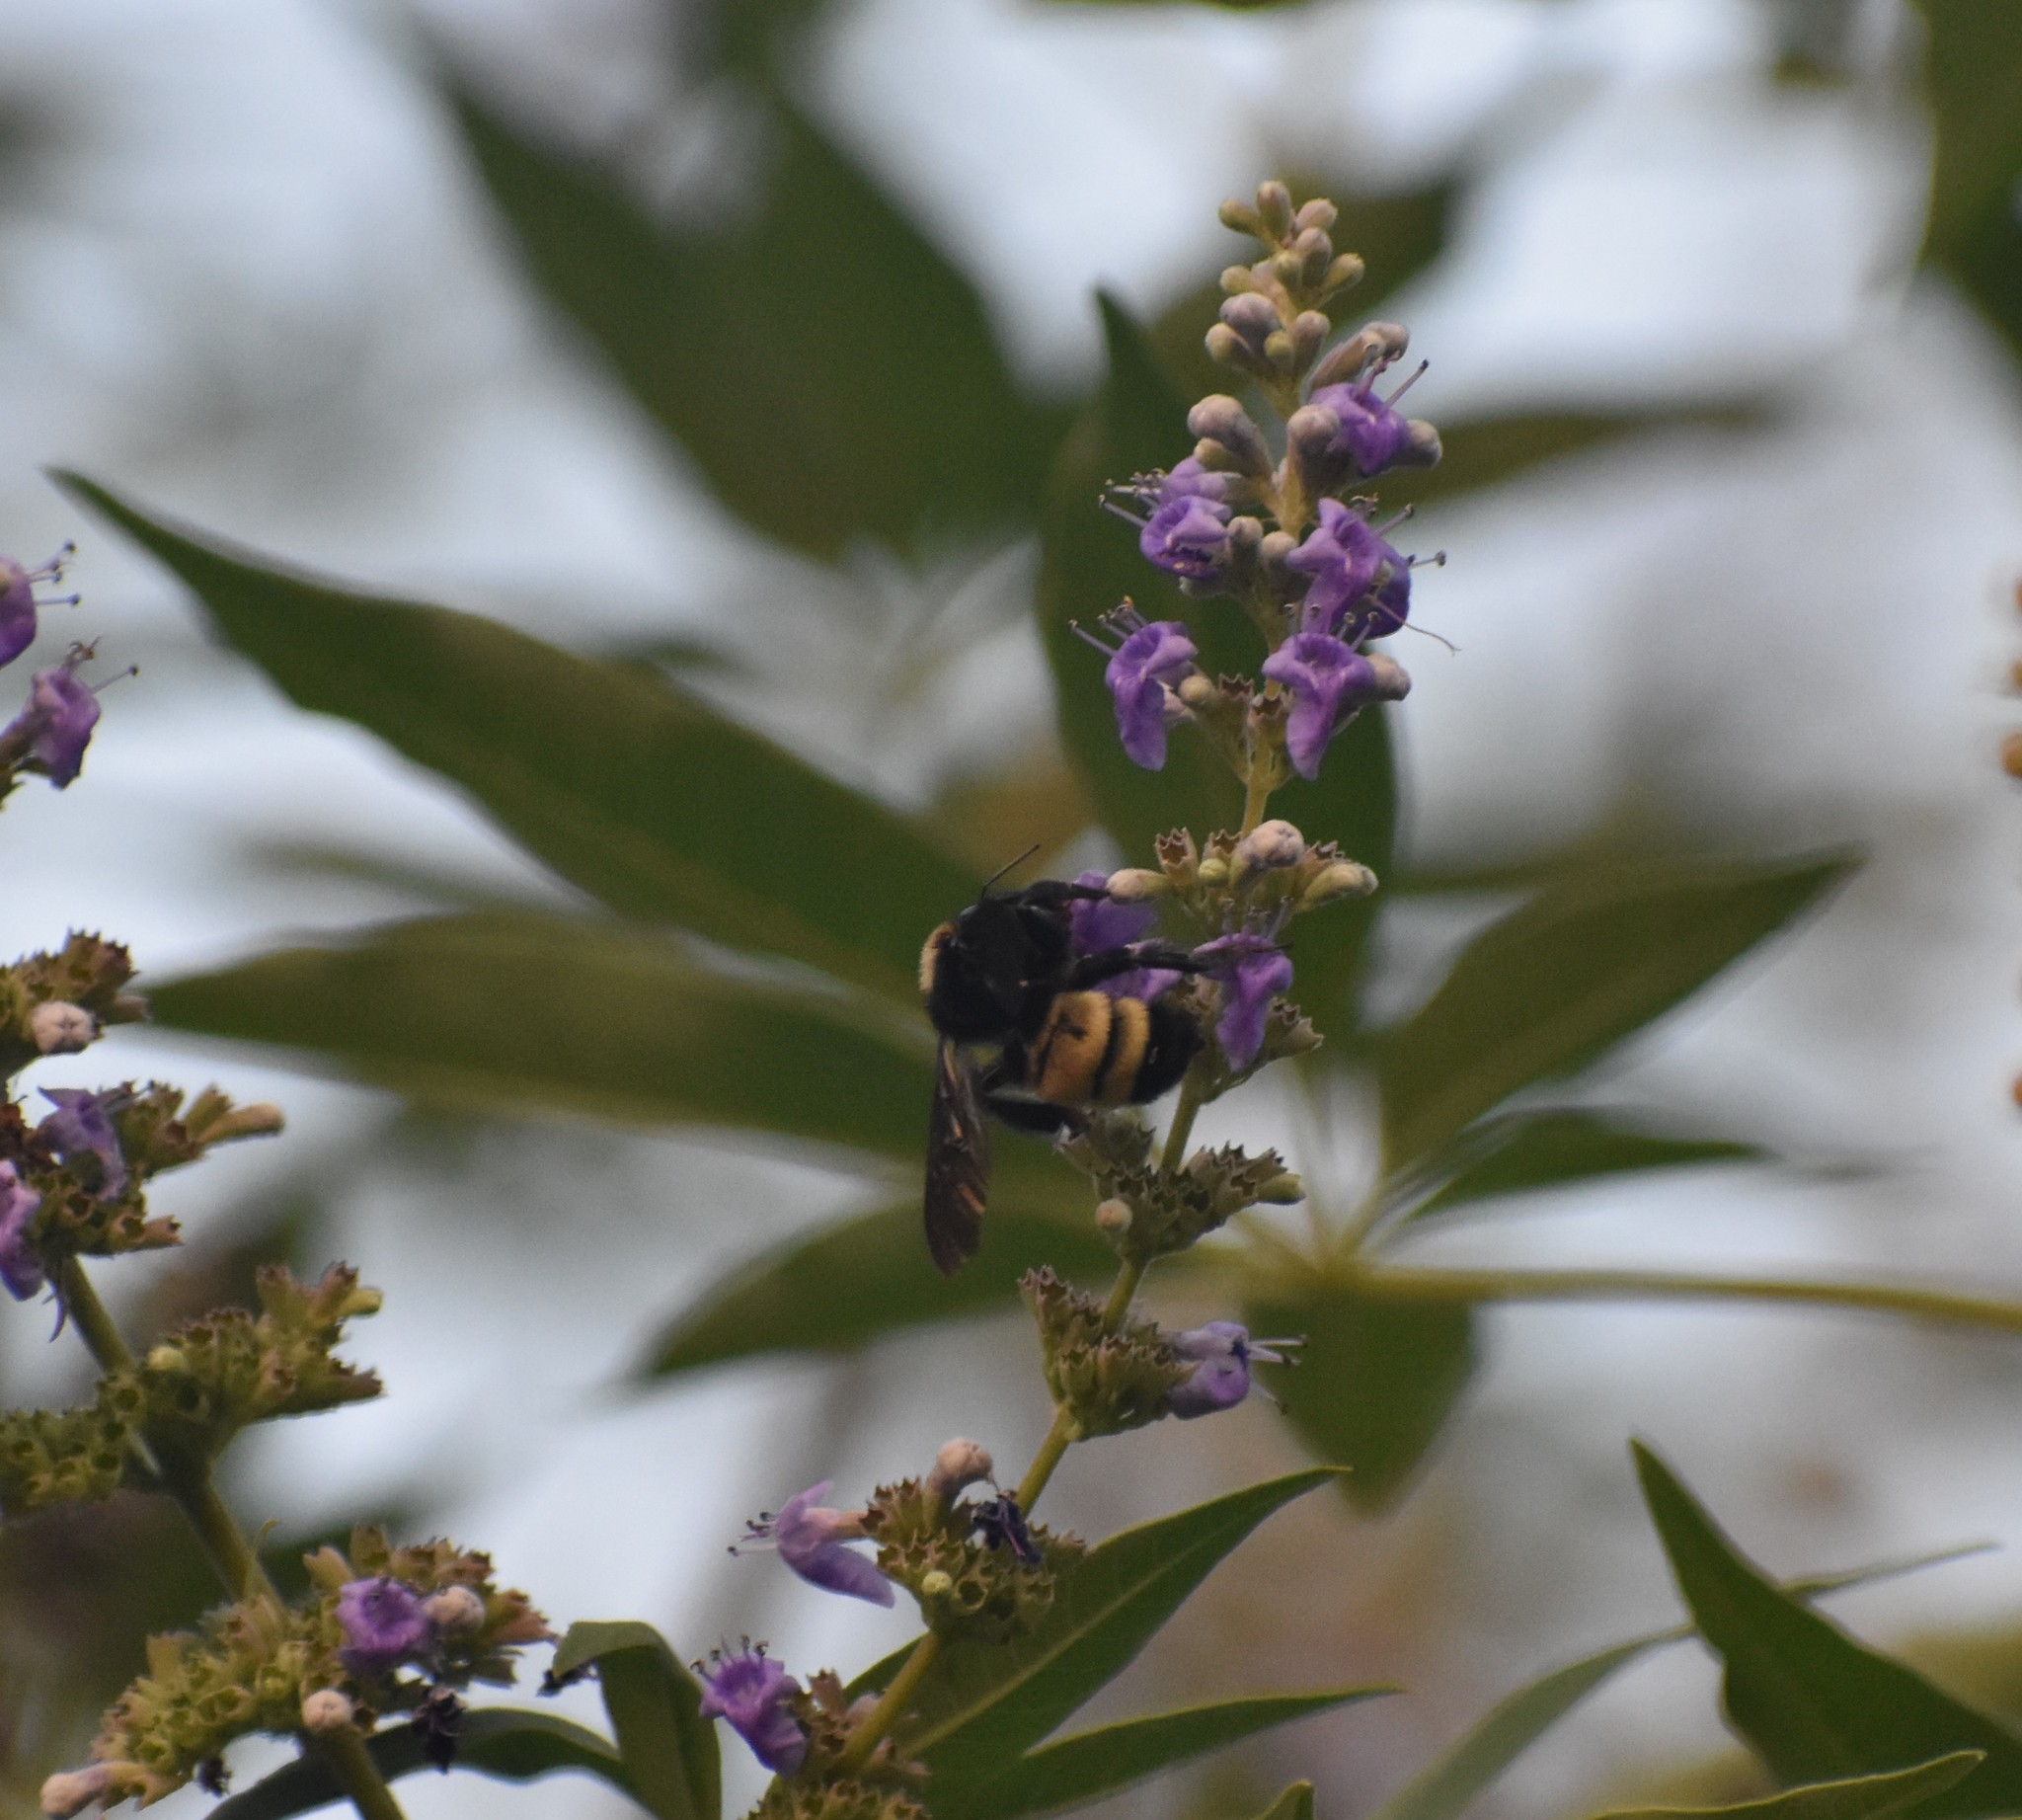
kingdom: Animalia
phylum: Arthropoda
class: Insecta
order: Hymenoptera
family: Apidae
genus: Bombus
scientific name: Bombus pensylvanicus
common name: Bumble bee
